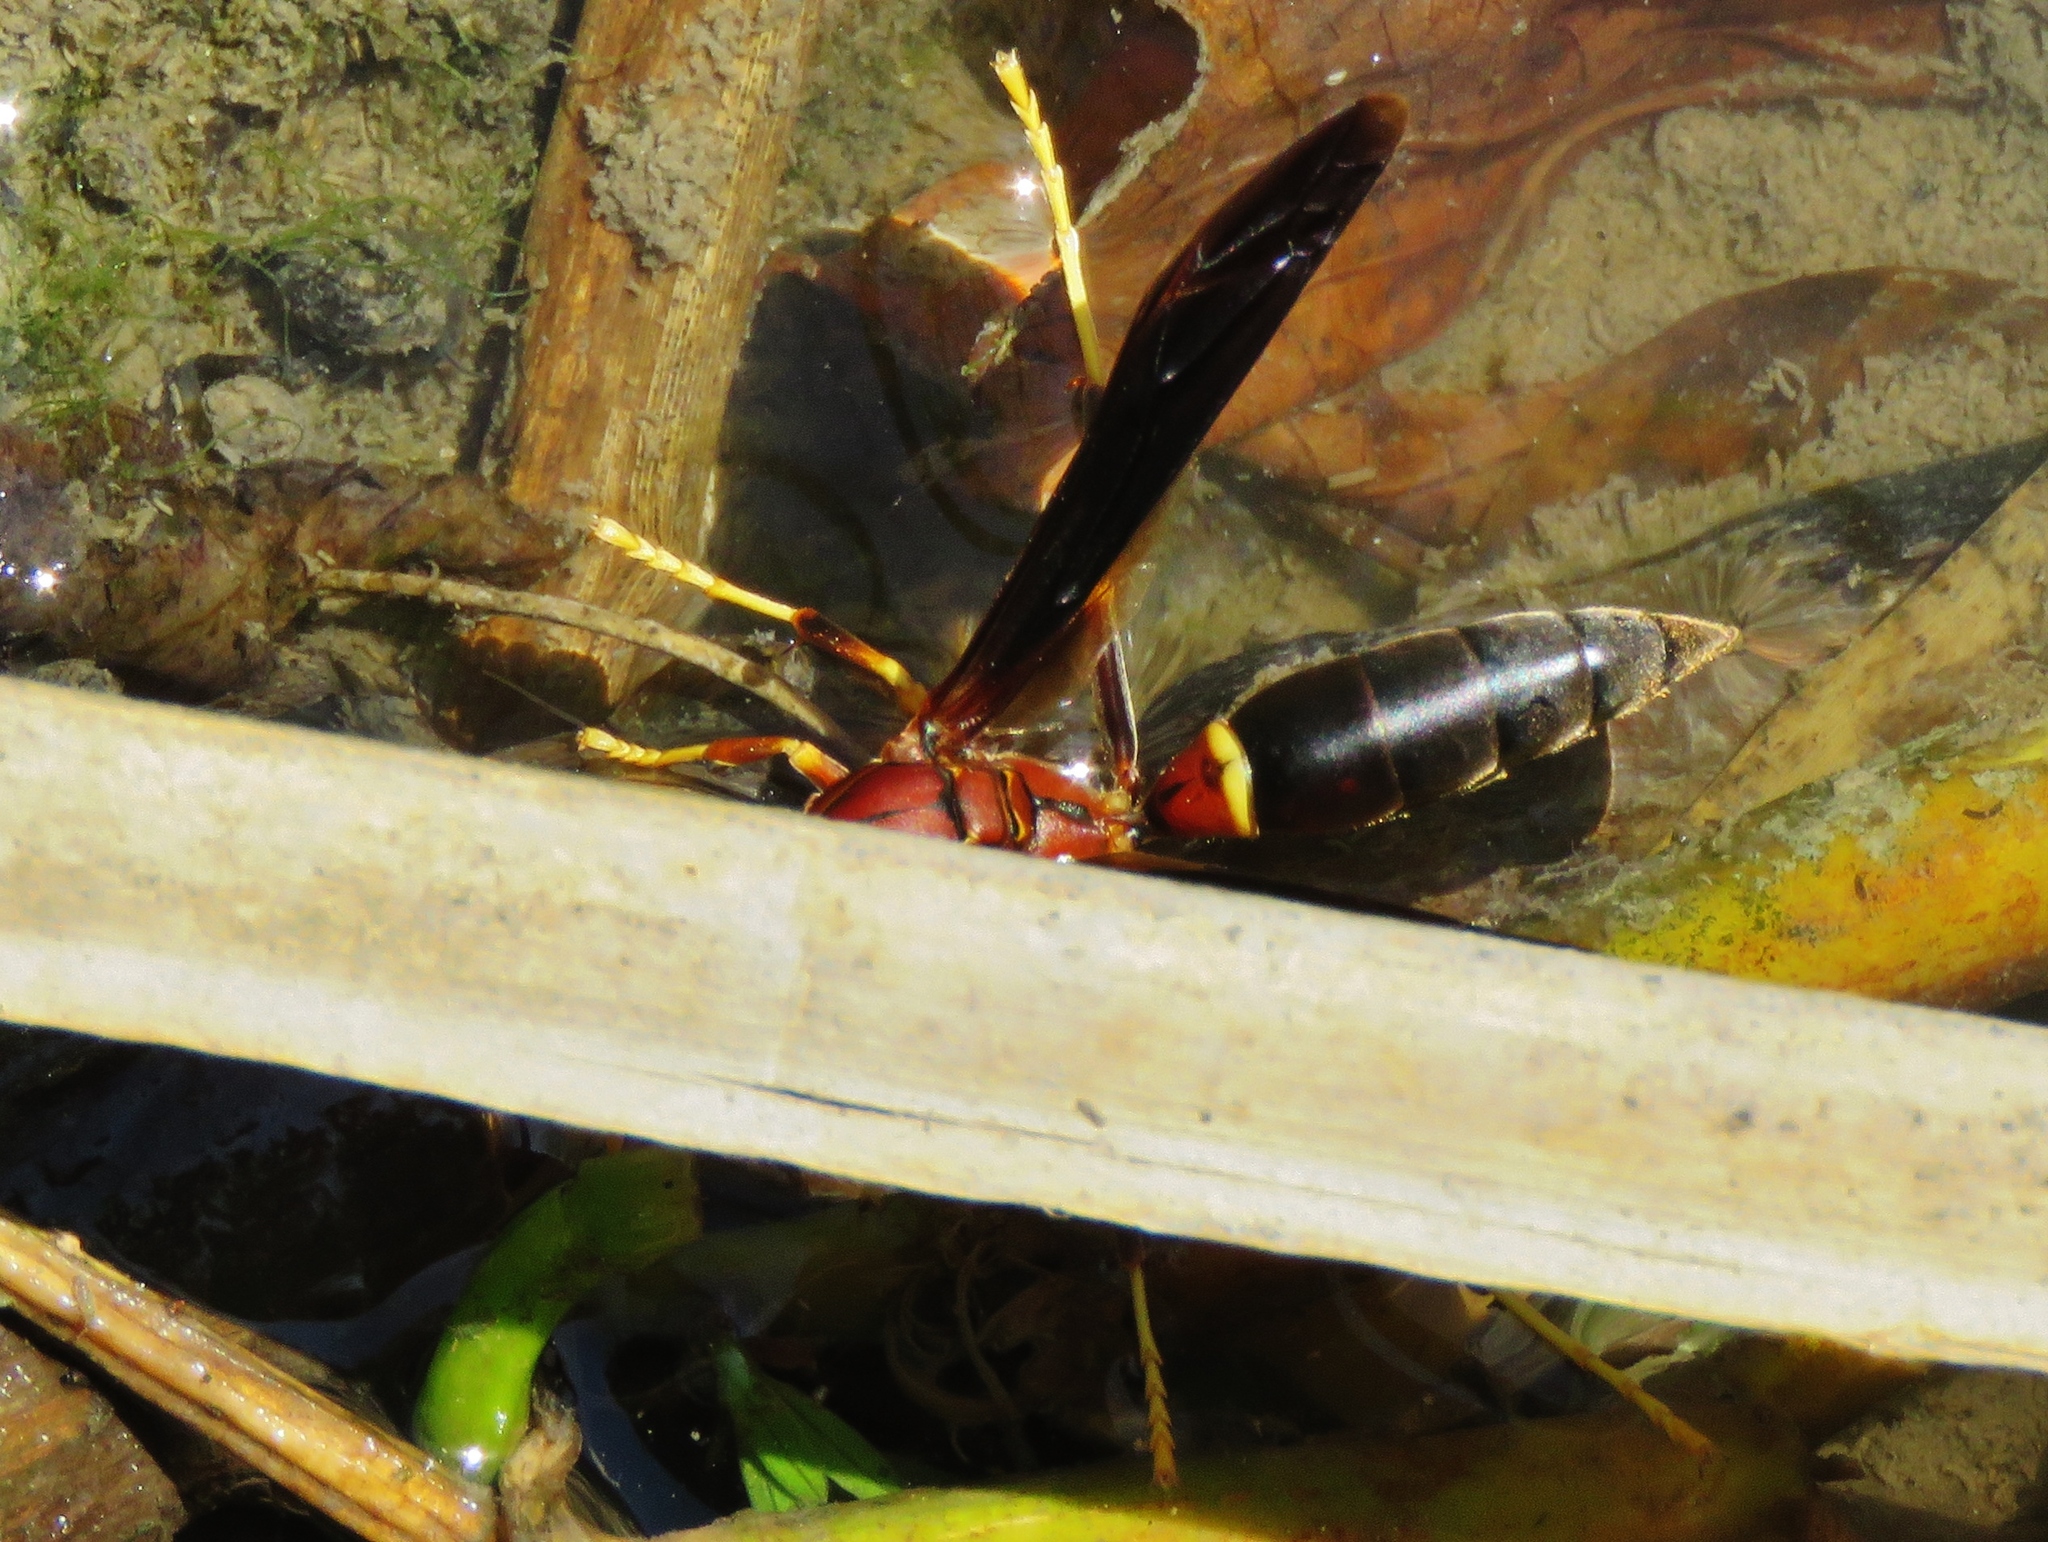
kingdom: Animalia
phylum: Arthropoda
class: Insecta
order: Hymenoptera
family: Eumenidae
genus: Polistes
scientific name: Polistes annularis
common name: Ringed paper wasp
